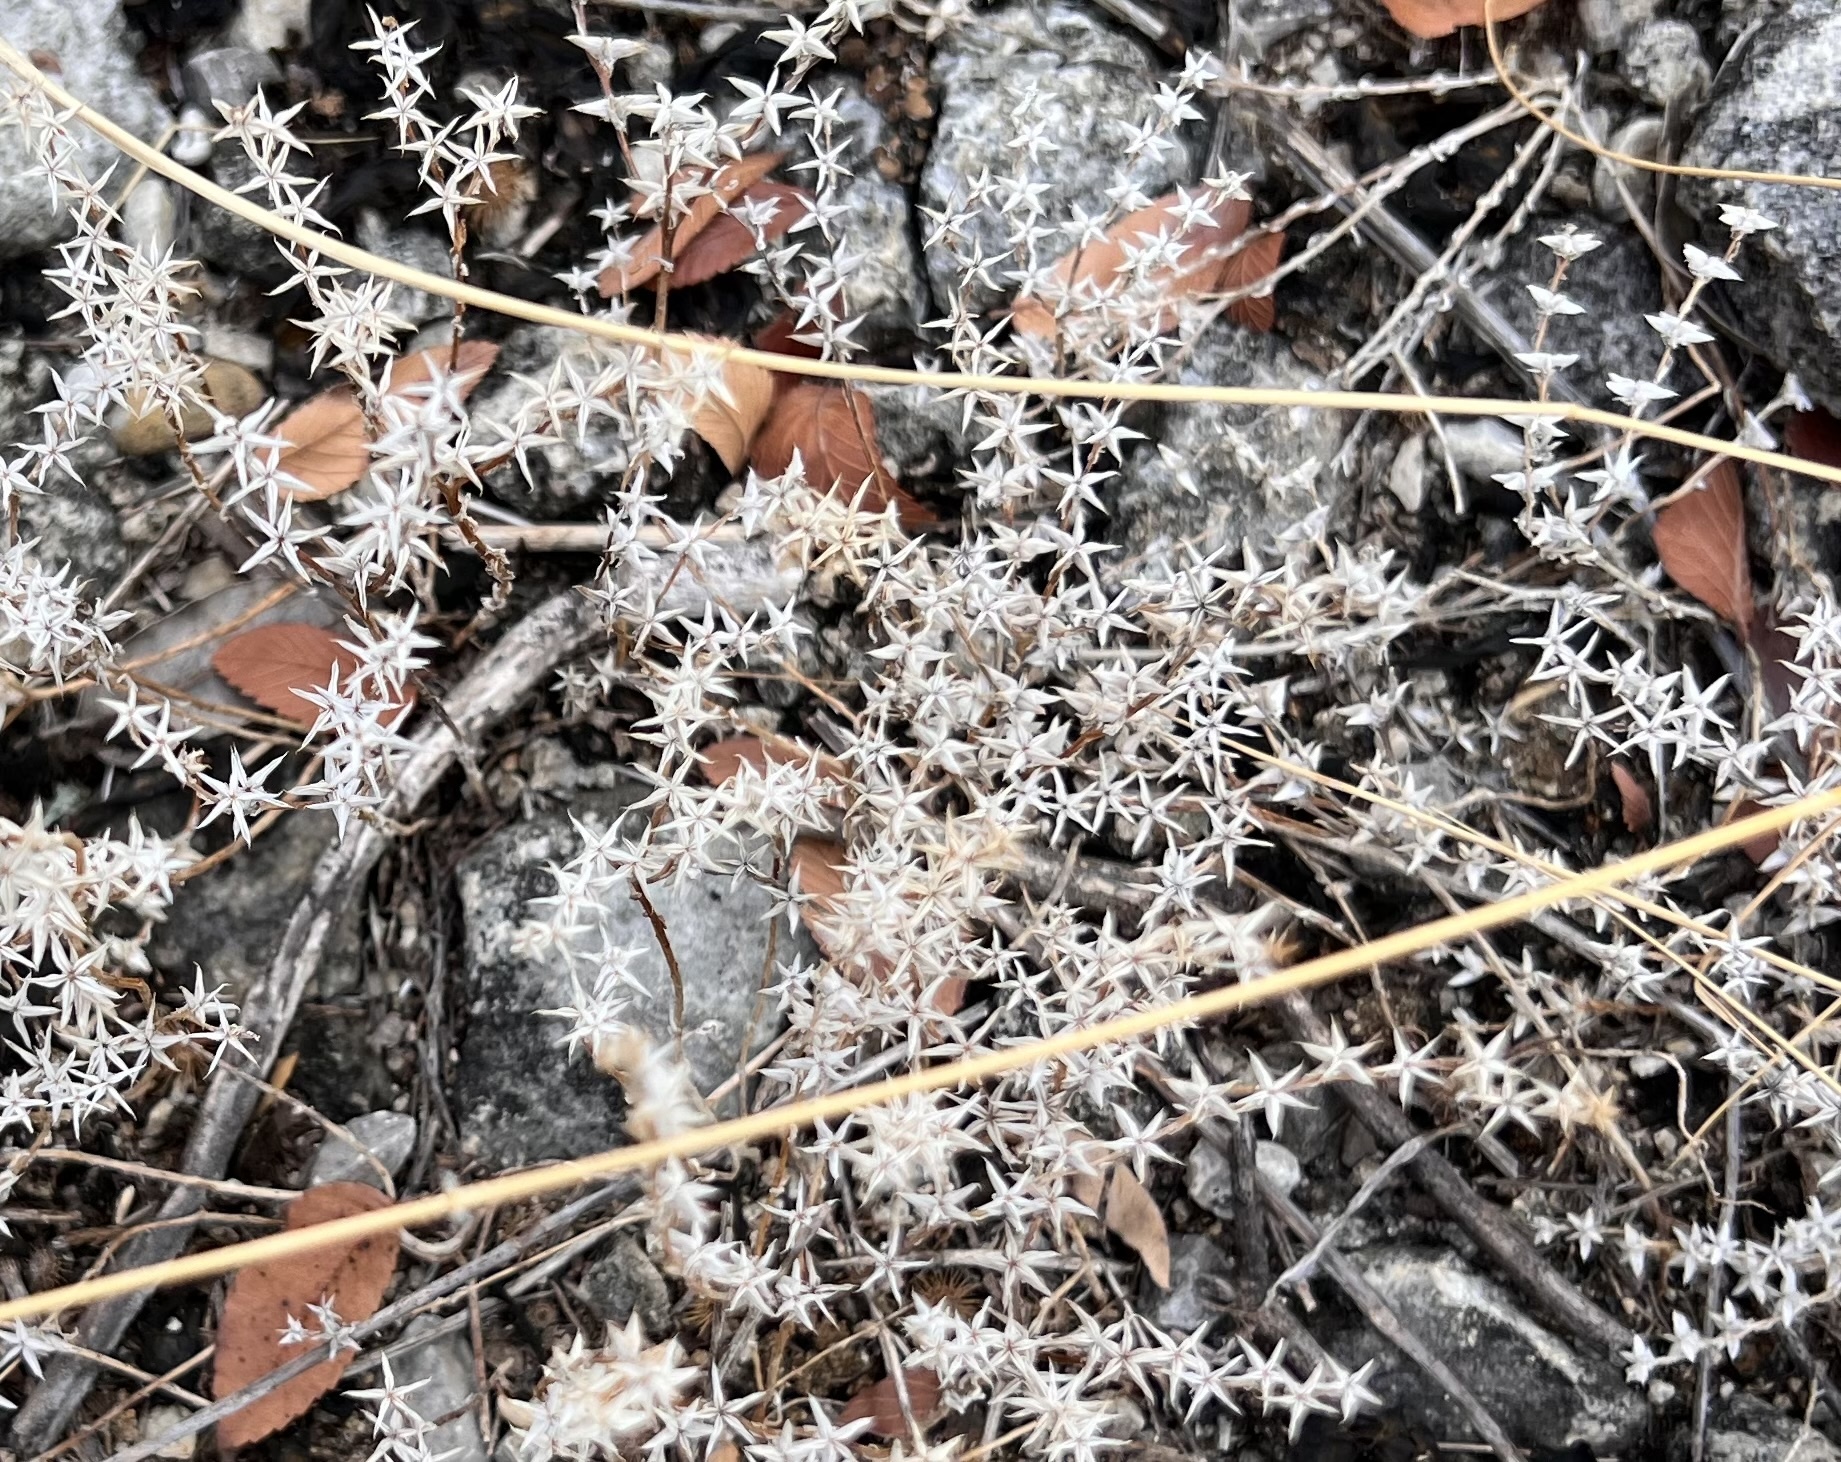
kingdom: Plantae
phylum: Tracheophyta
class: Magnoliopsida
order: Saxifragales
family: Crassulaceae
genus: Sedum
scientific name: Sedum nuttallii
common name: Yellow stonecrop
